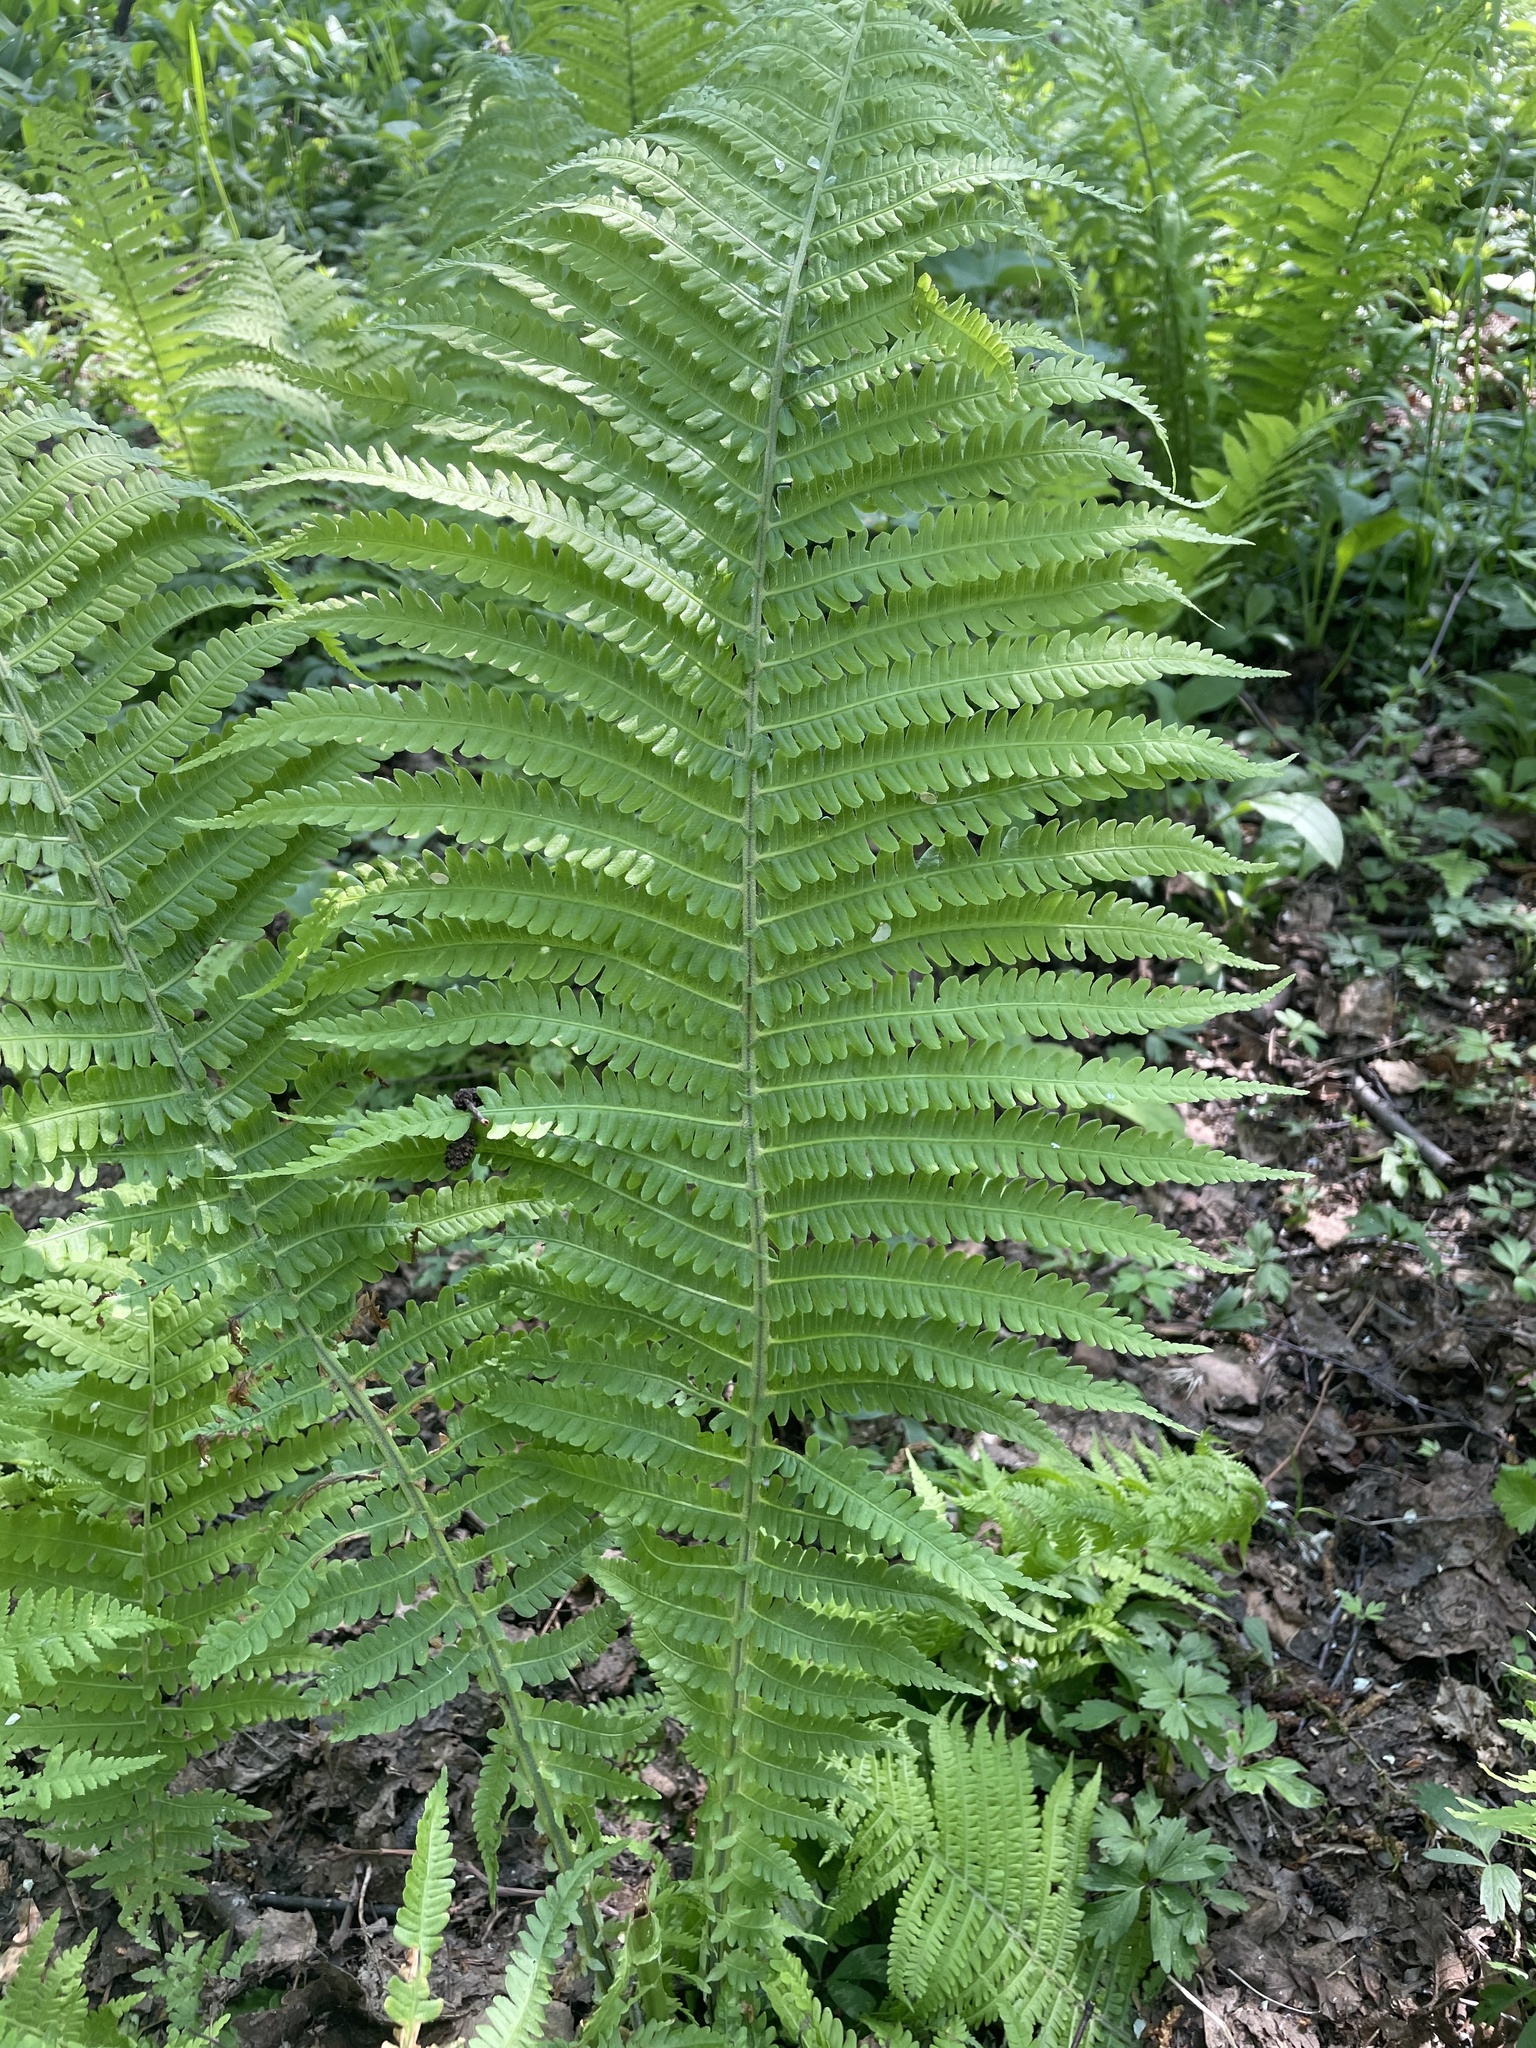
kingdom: Plantae
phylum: Tracheophyta
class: Polypodiopsida
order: Polypodiales
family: Onocleaceae
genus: Matteuccia
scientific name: Matteuccia struthiopteris
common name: Ostrich fern
